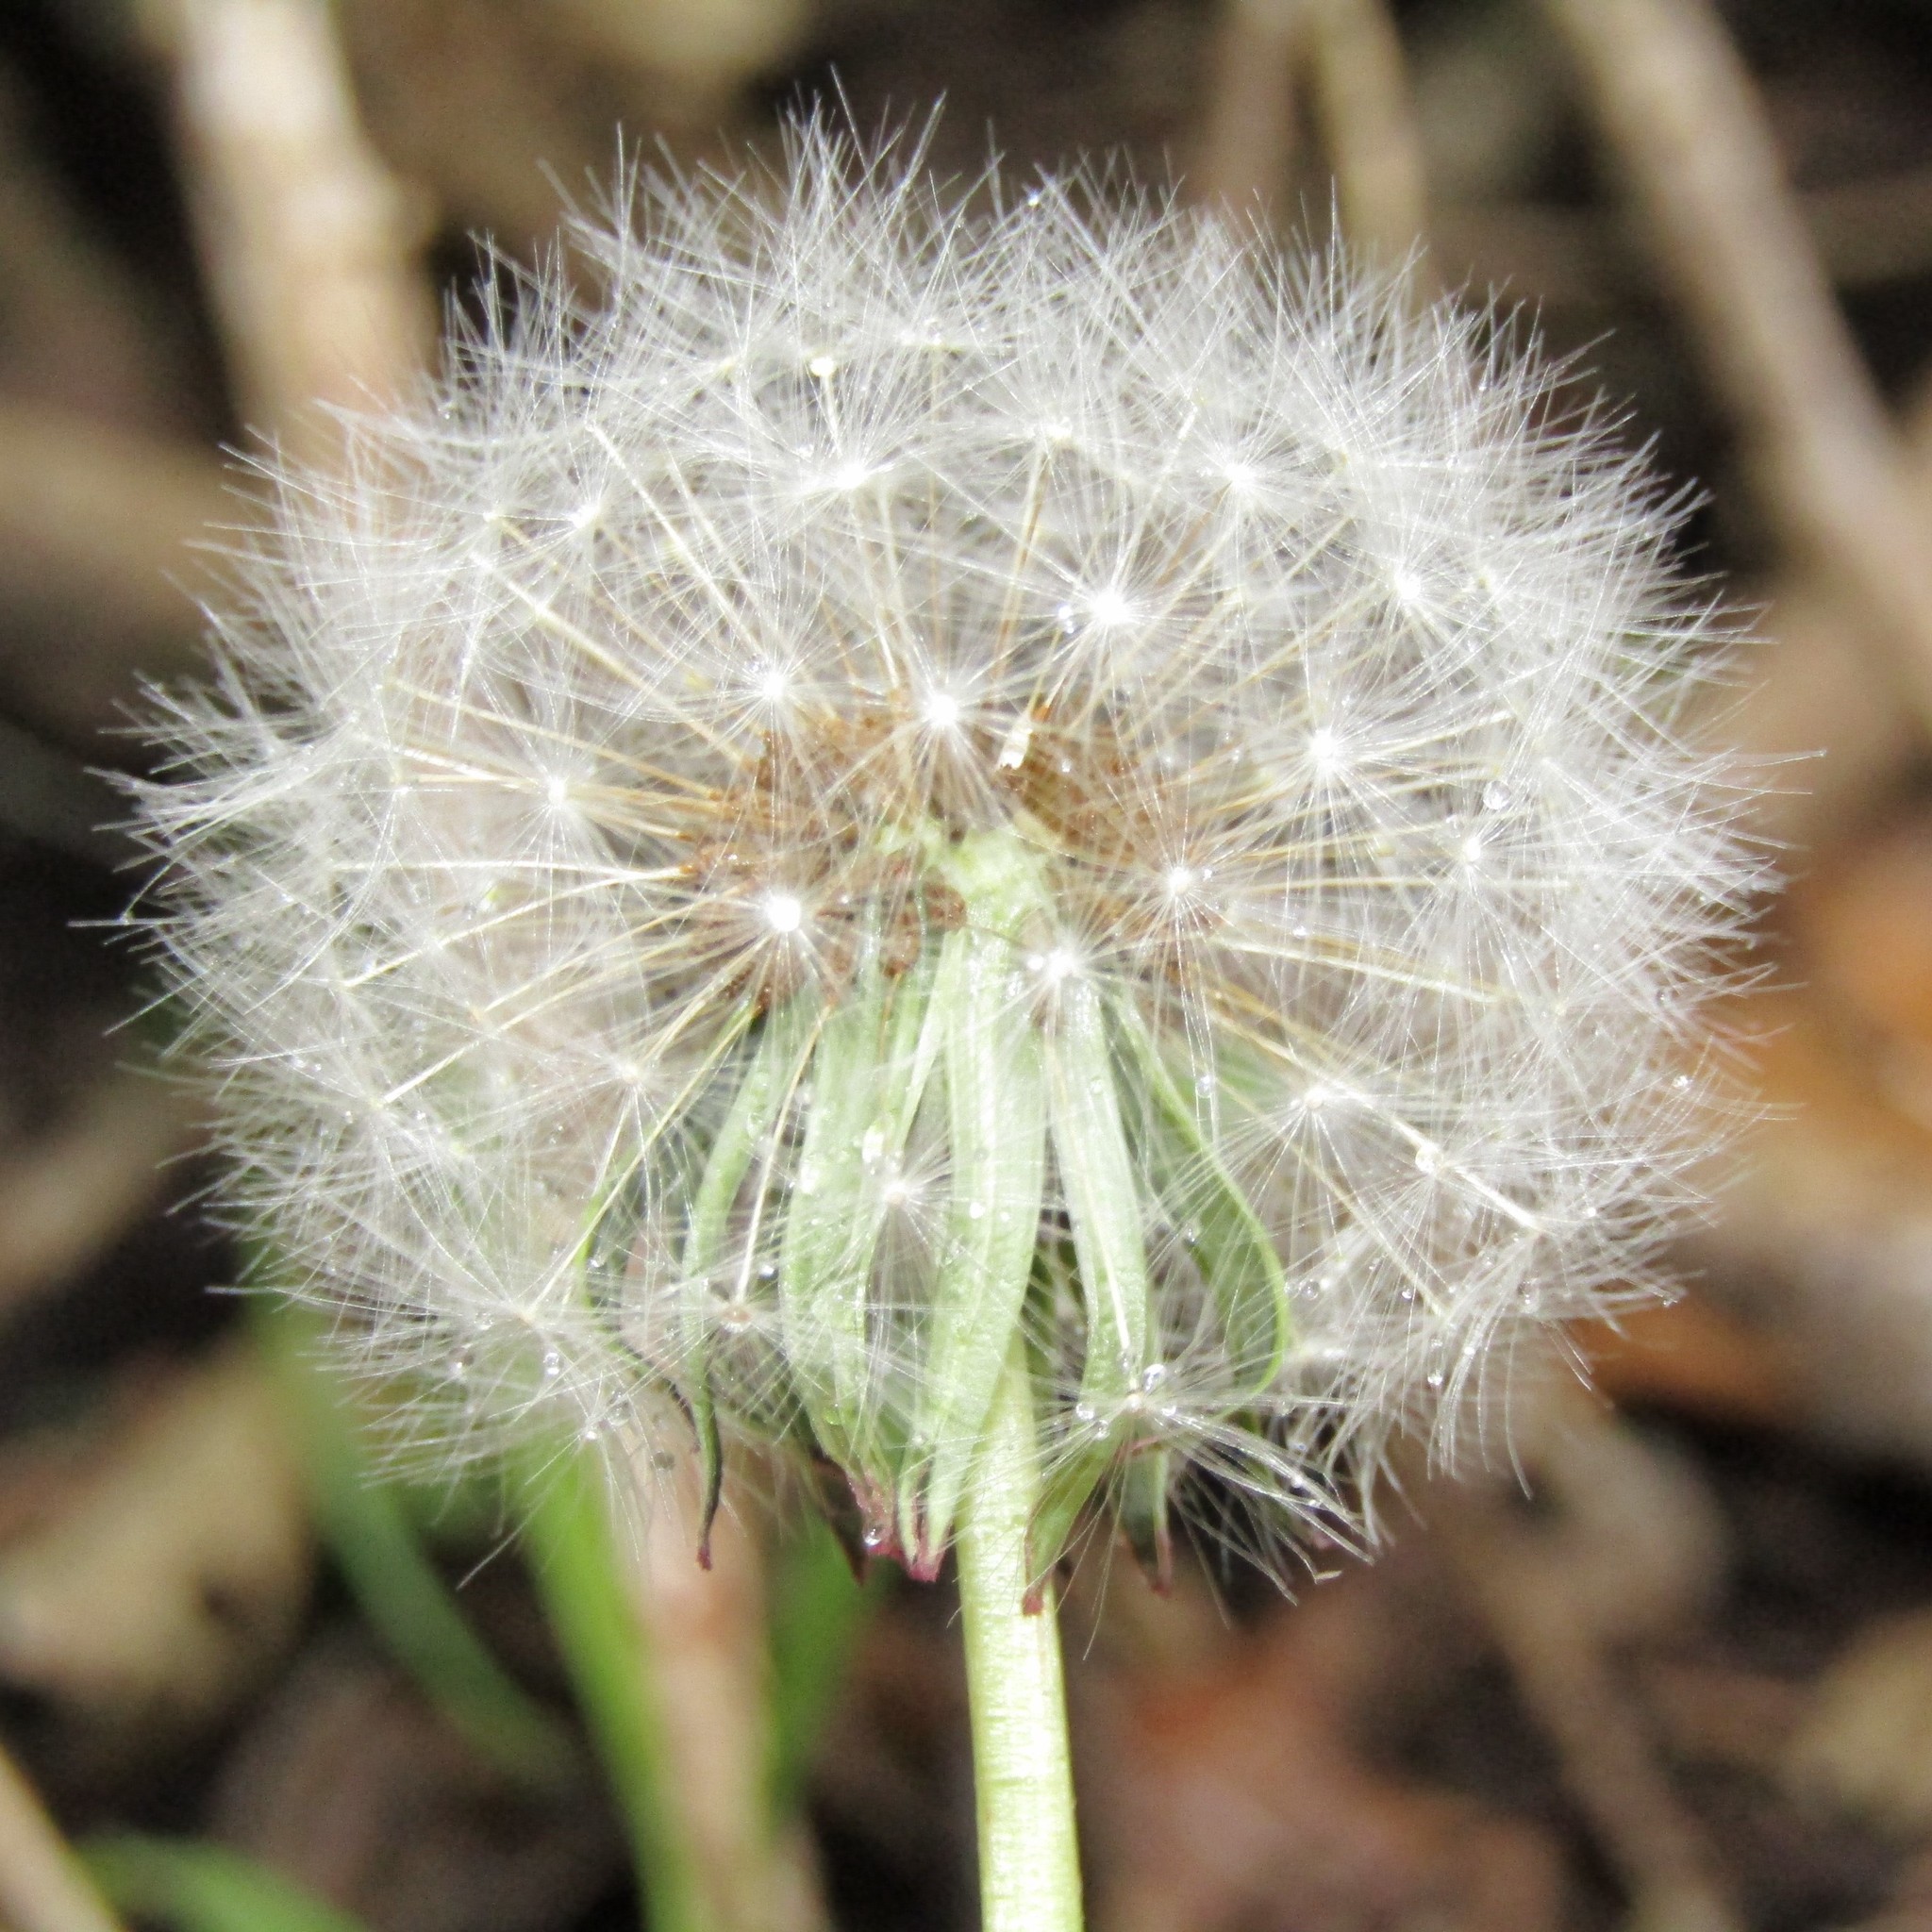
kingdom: Plantae
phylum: Tracheophyta
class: Magnoliopsida
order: Asterales
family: Asteraceae
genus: Taraxacum
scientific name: Taraxacum officinale
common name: Common dandelion
